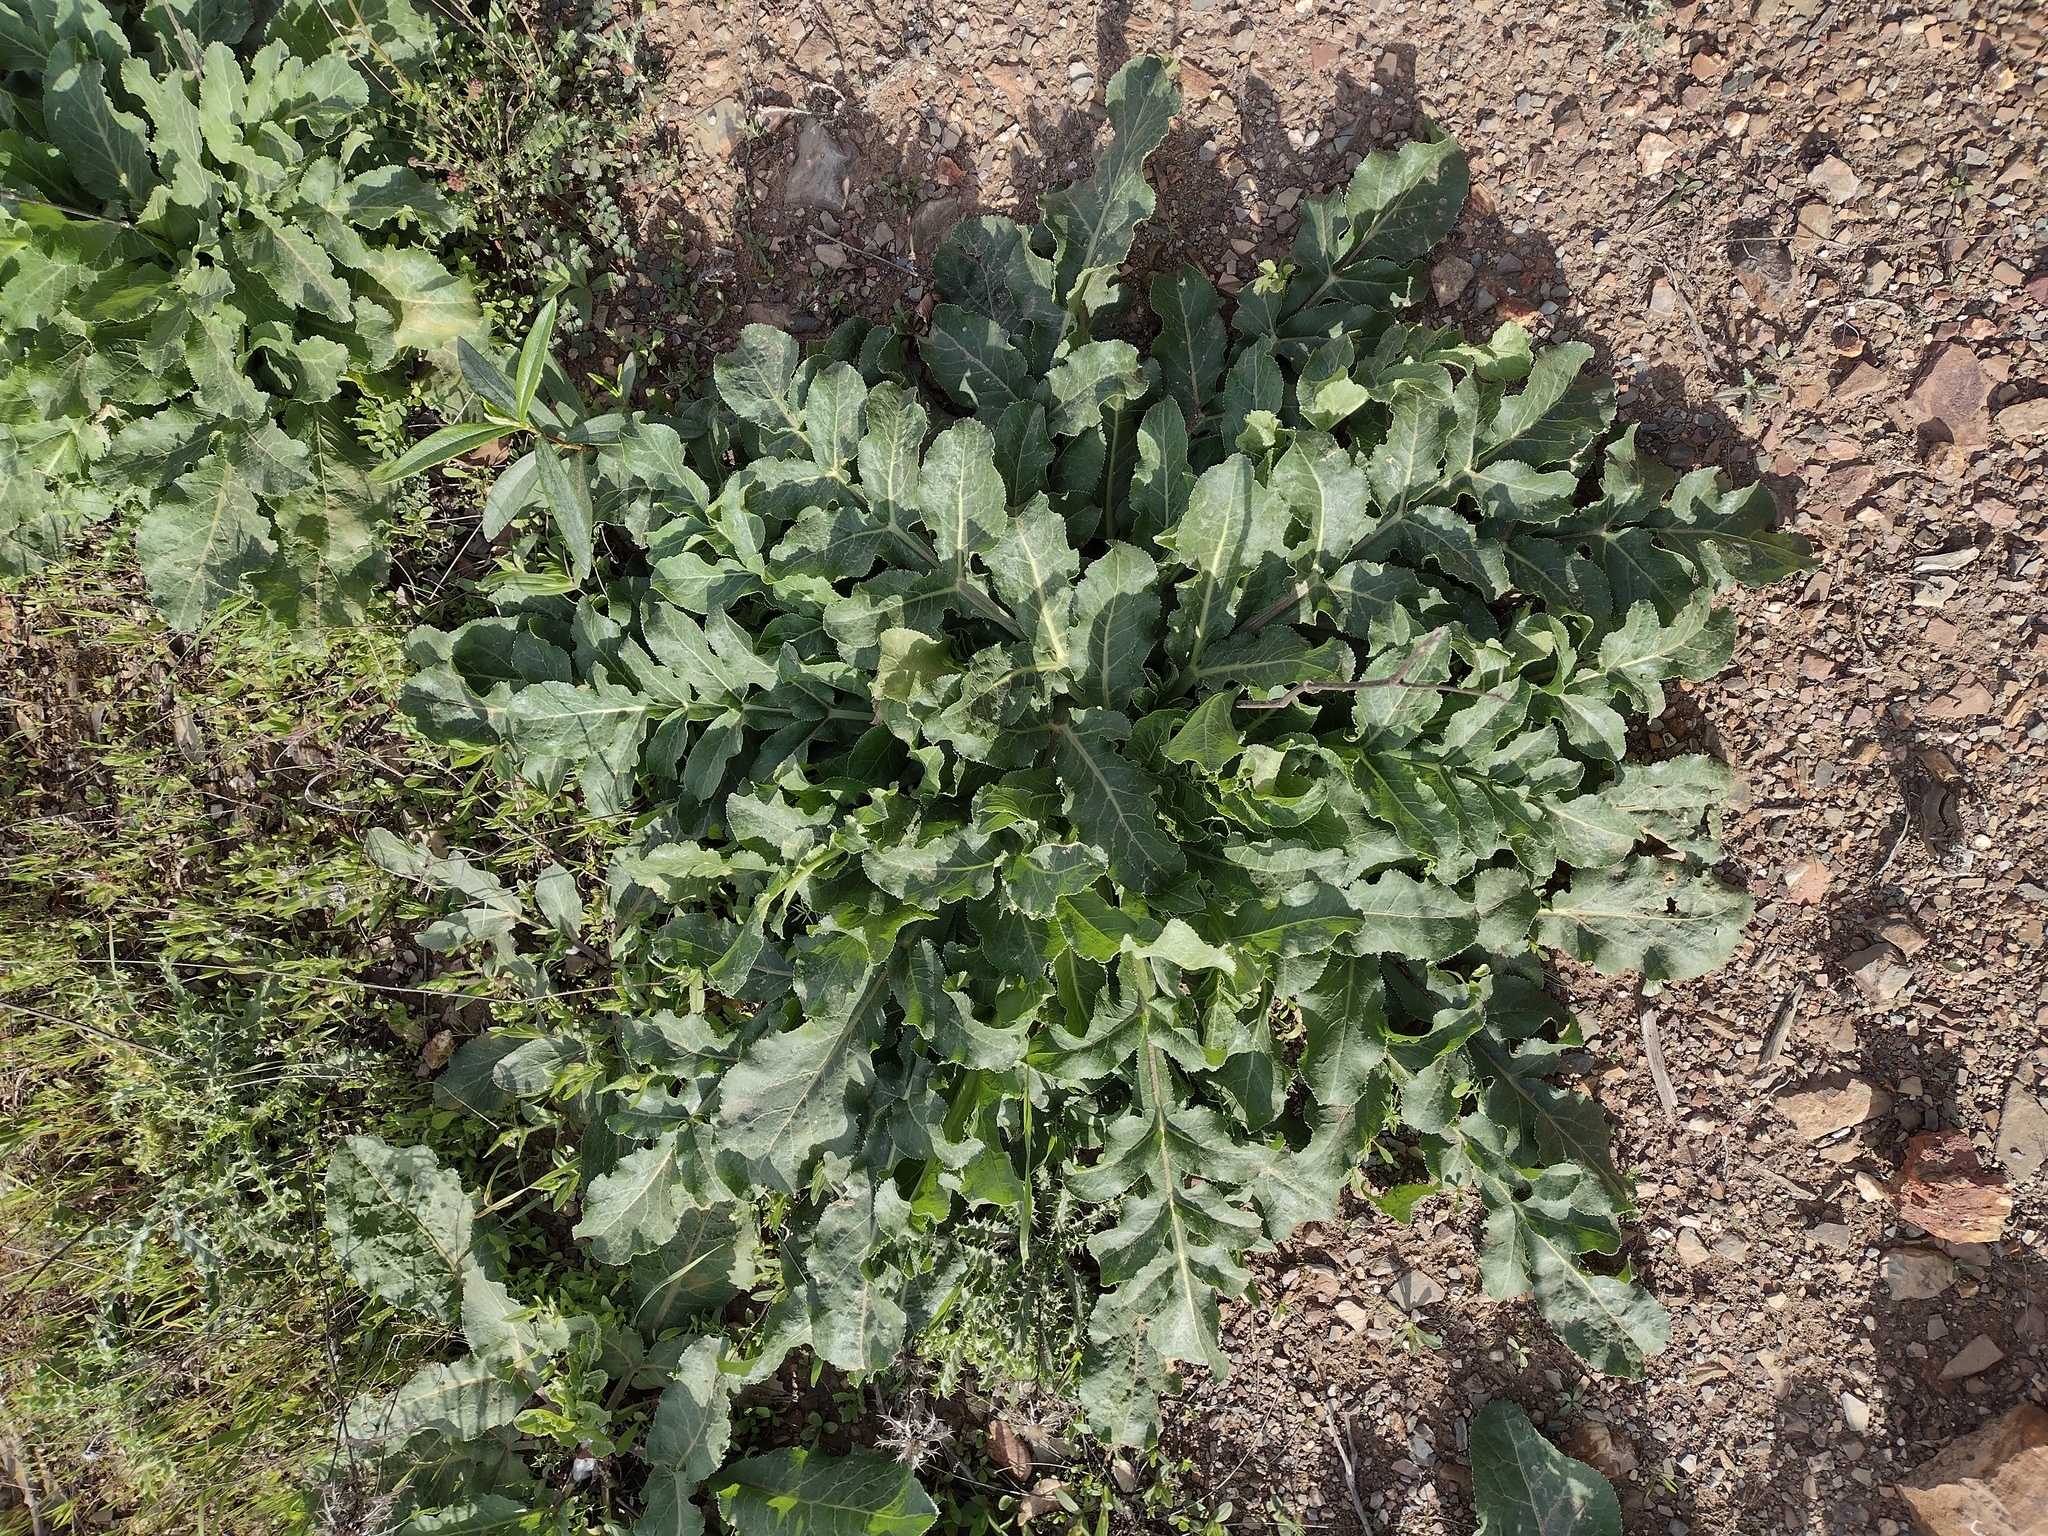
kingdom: Plantae
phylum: Tracheophyta
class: Magnoliopsida
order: Apiales
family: Apiaceae
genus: Magydaris
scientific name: Magydaris panacifolia
